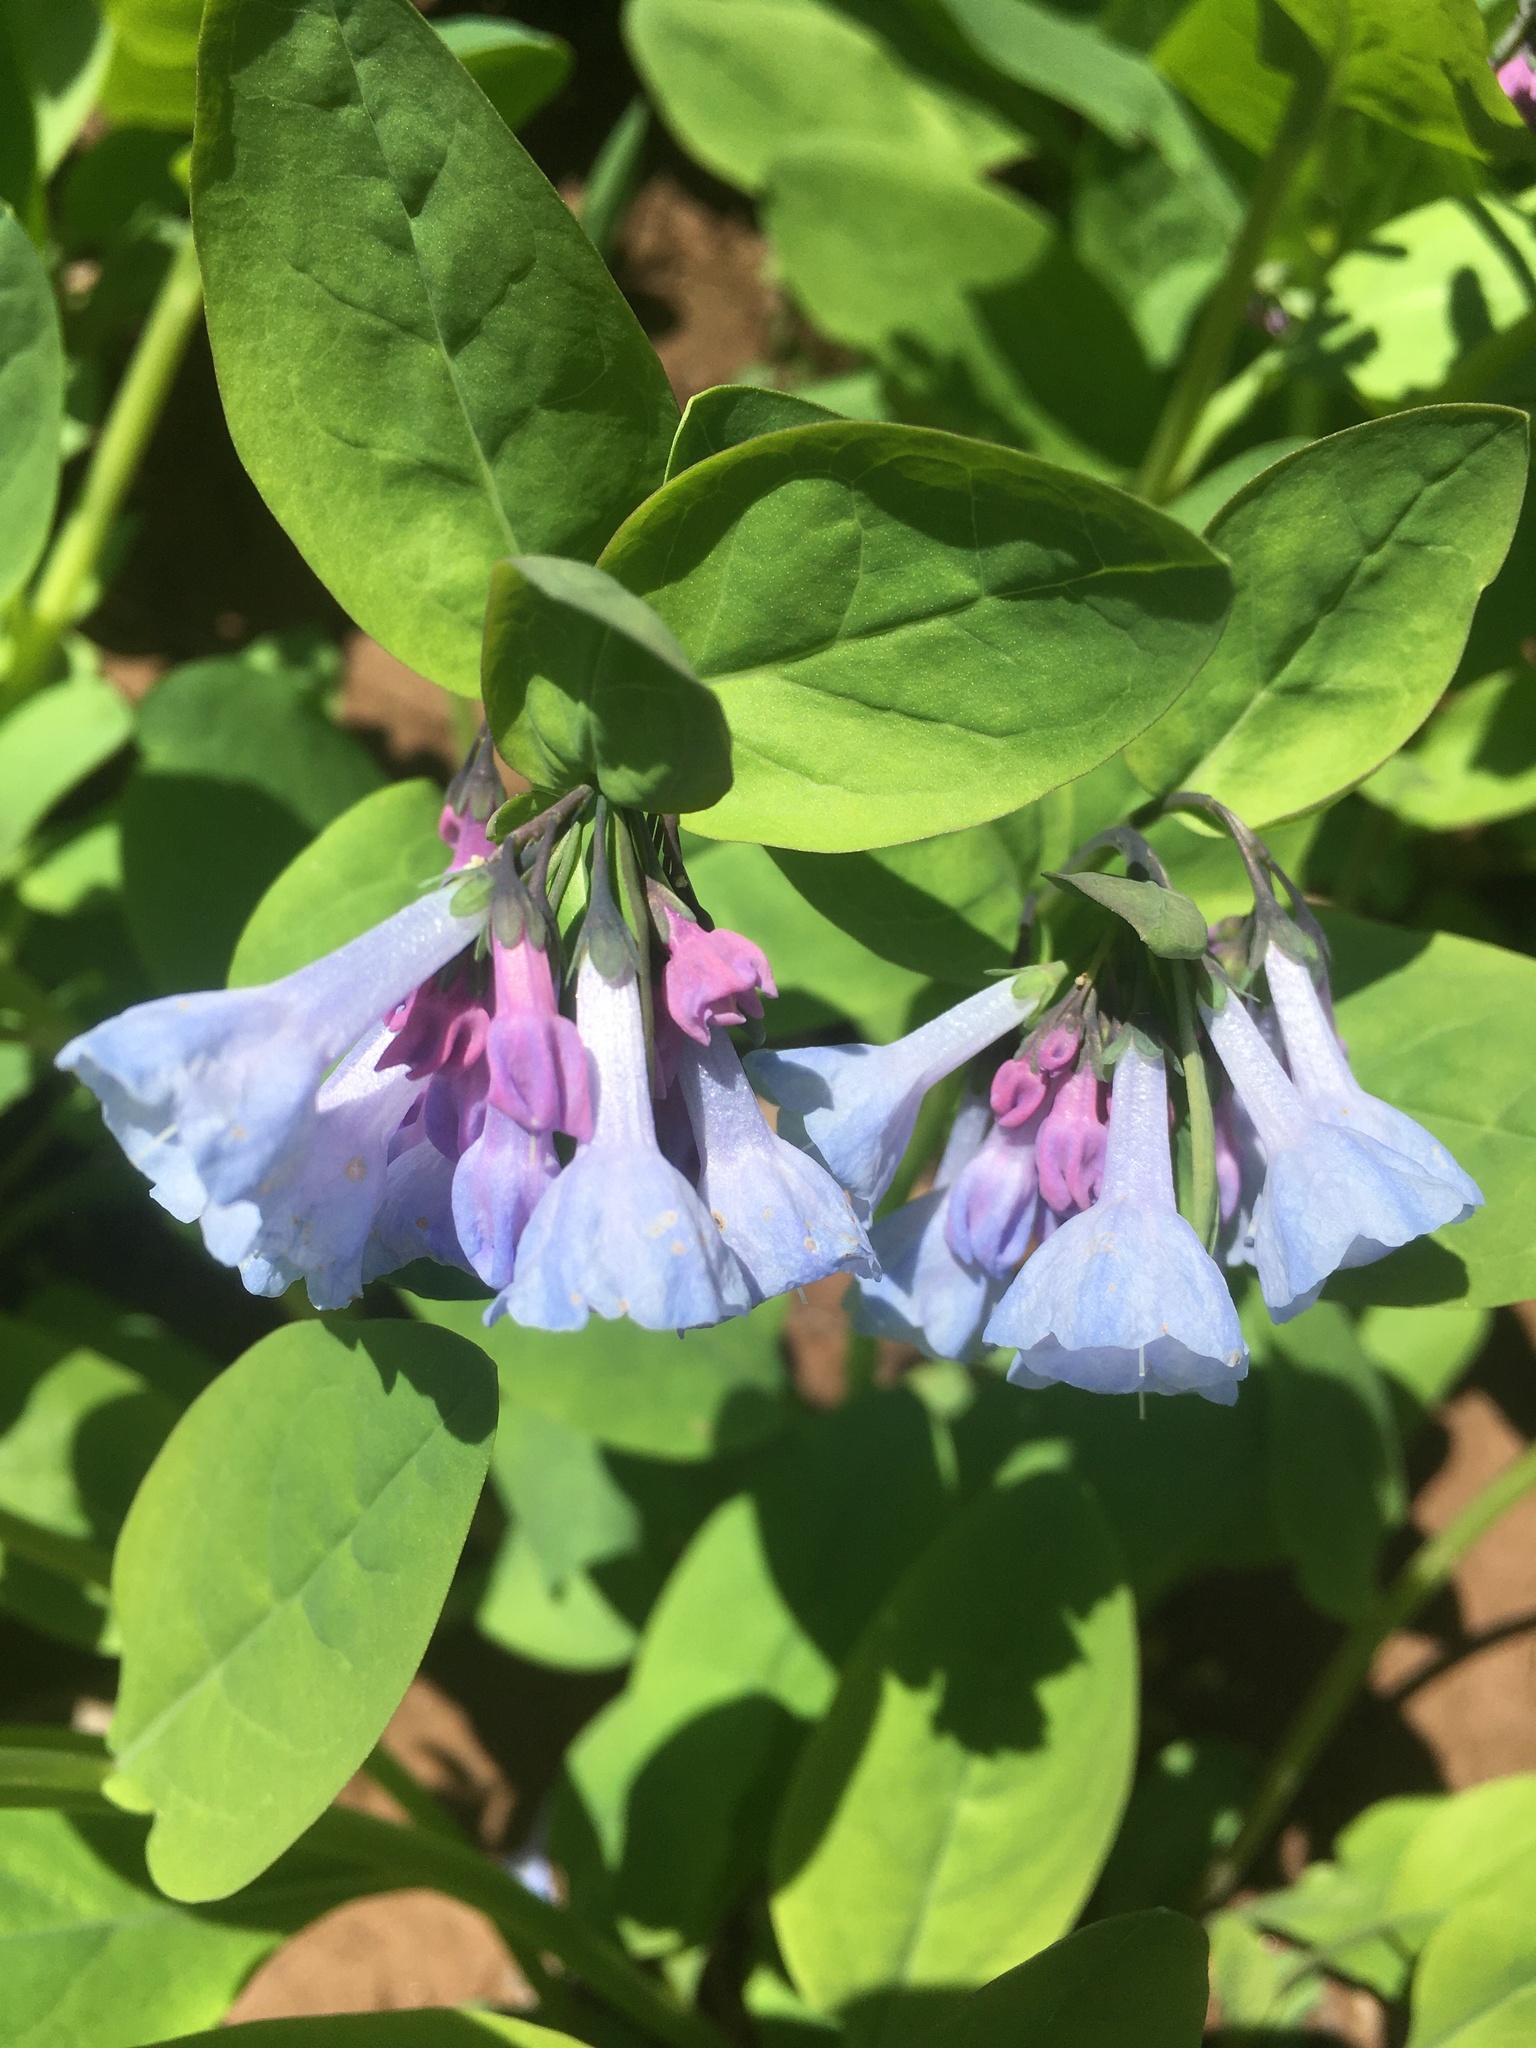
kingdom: Plantae
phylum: Tracheophyta
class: Magnoliopsida
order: Boraginales
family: Boraginaceae
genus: Mertensia
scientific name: Mertensia virginica
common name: Virginia bluebells
